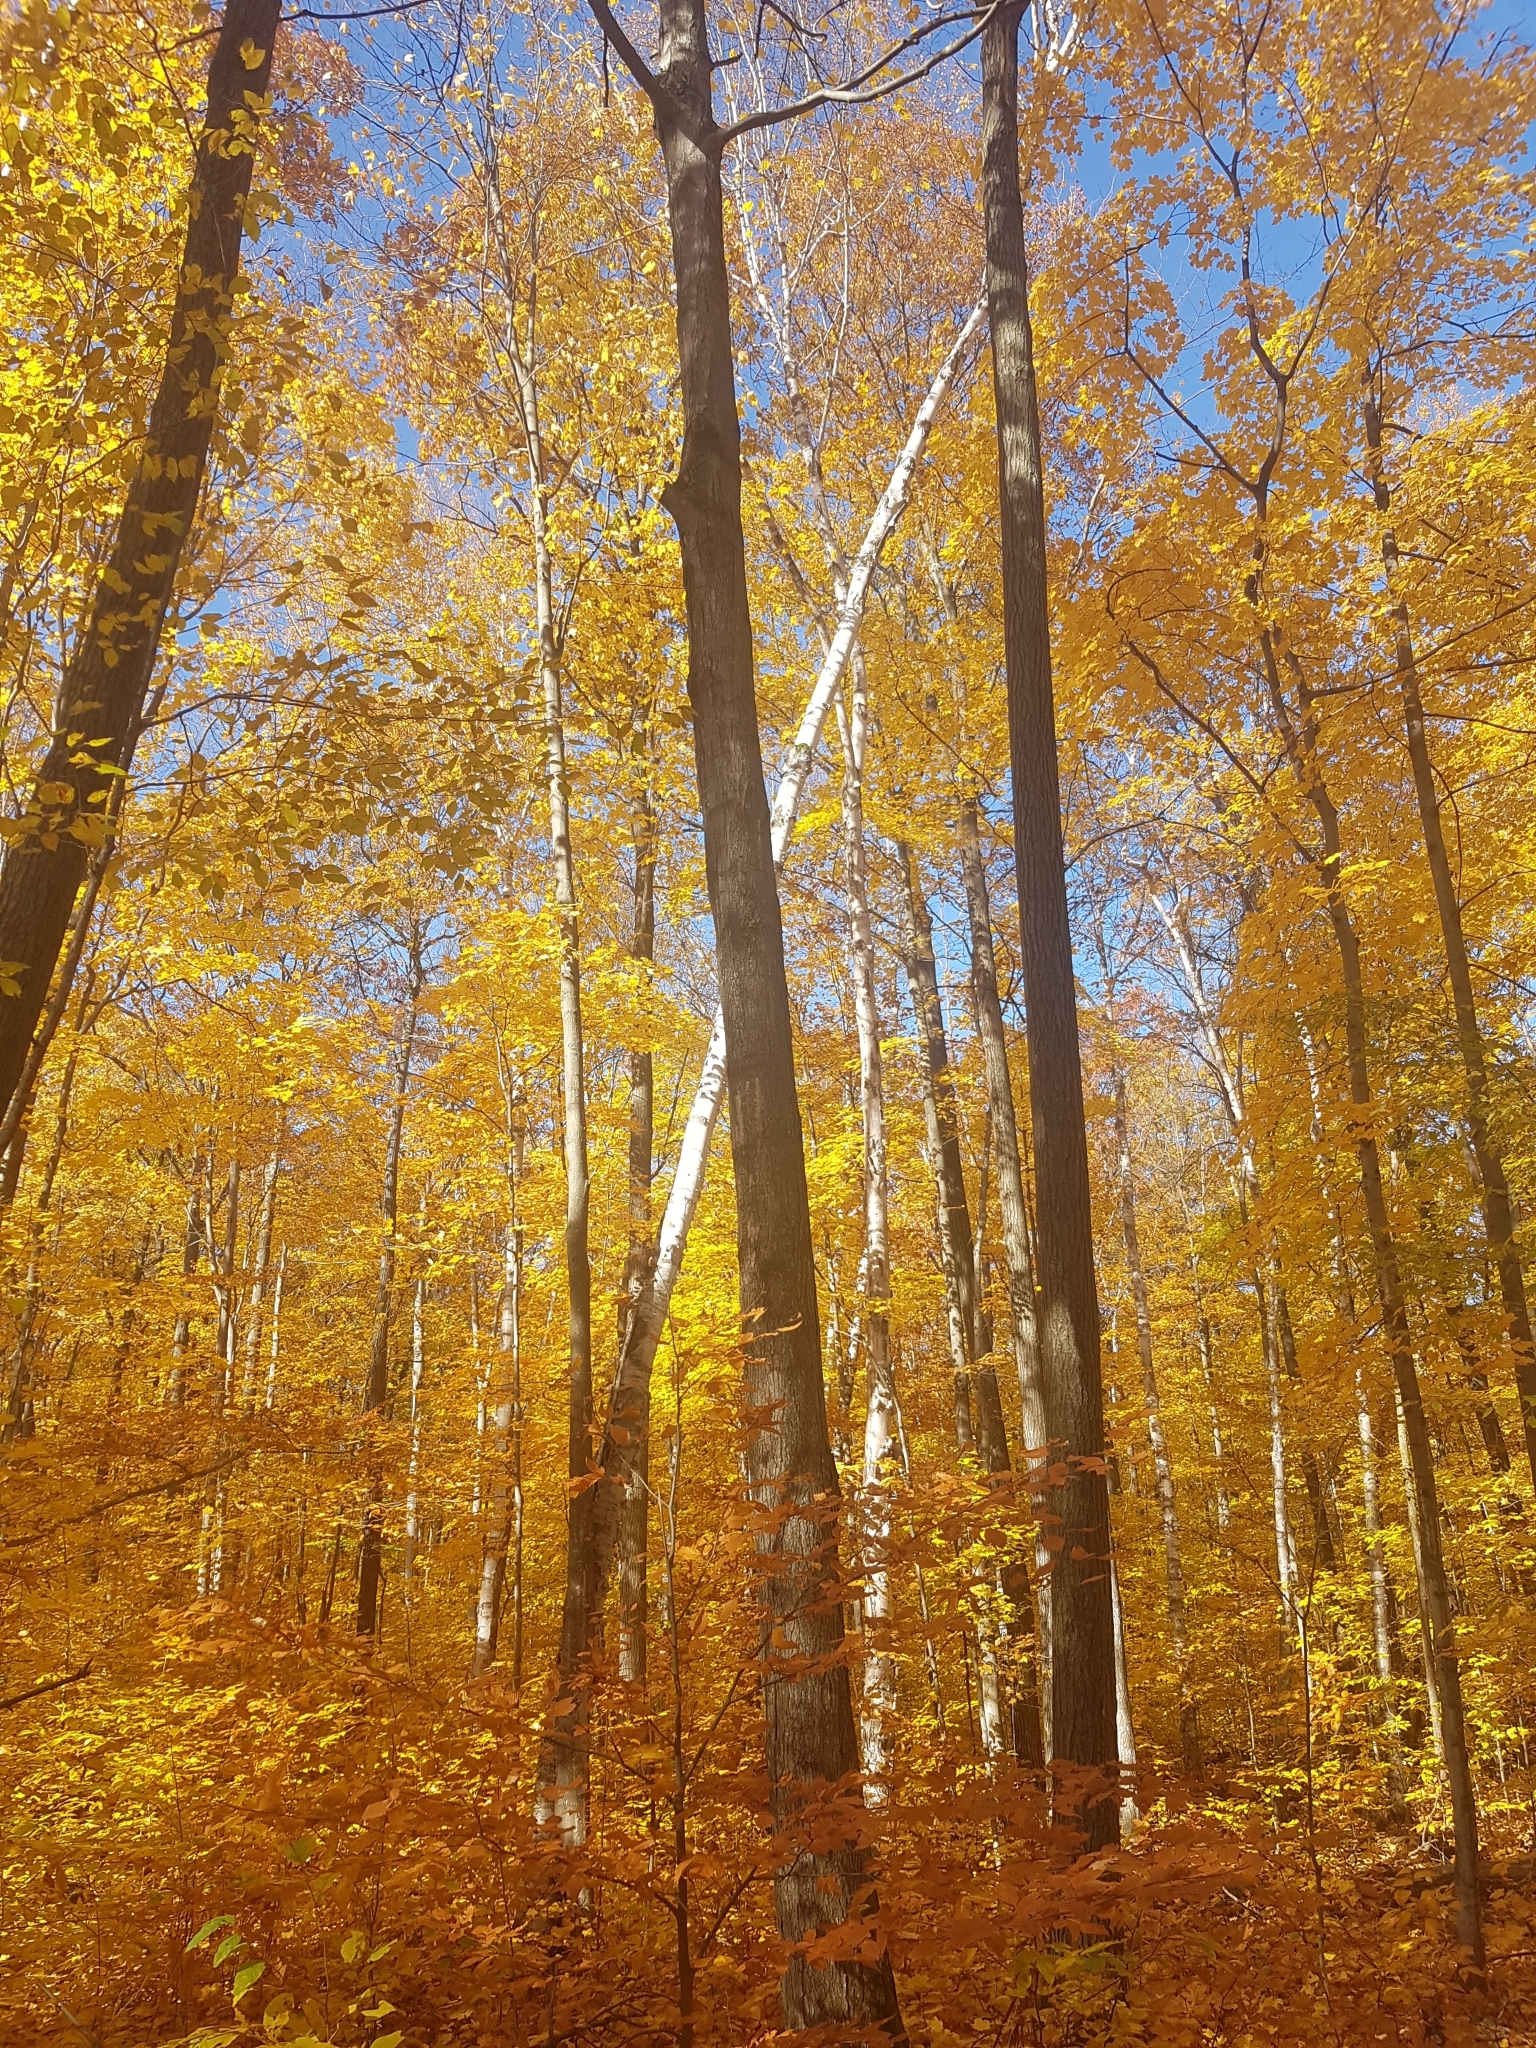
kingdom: Plantae
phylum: Tracheophyta
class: Magnoliopsida
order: Fagales
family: Betulaceae
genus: Betula
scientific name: Betula papyrifera
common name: Paper birch
